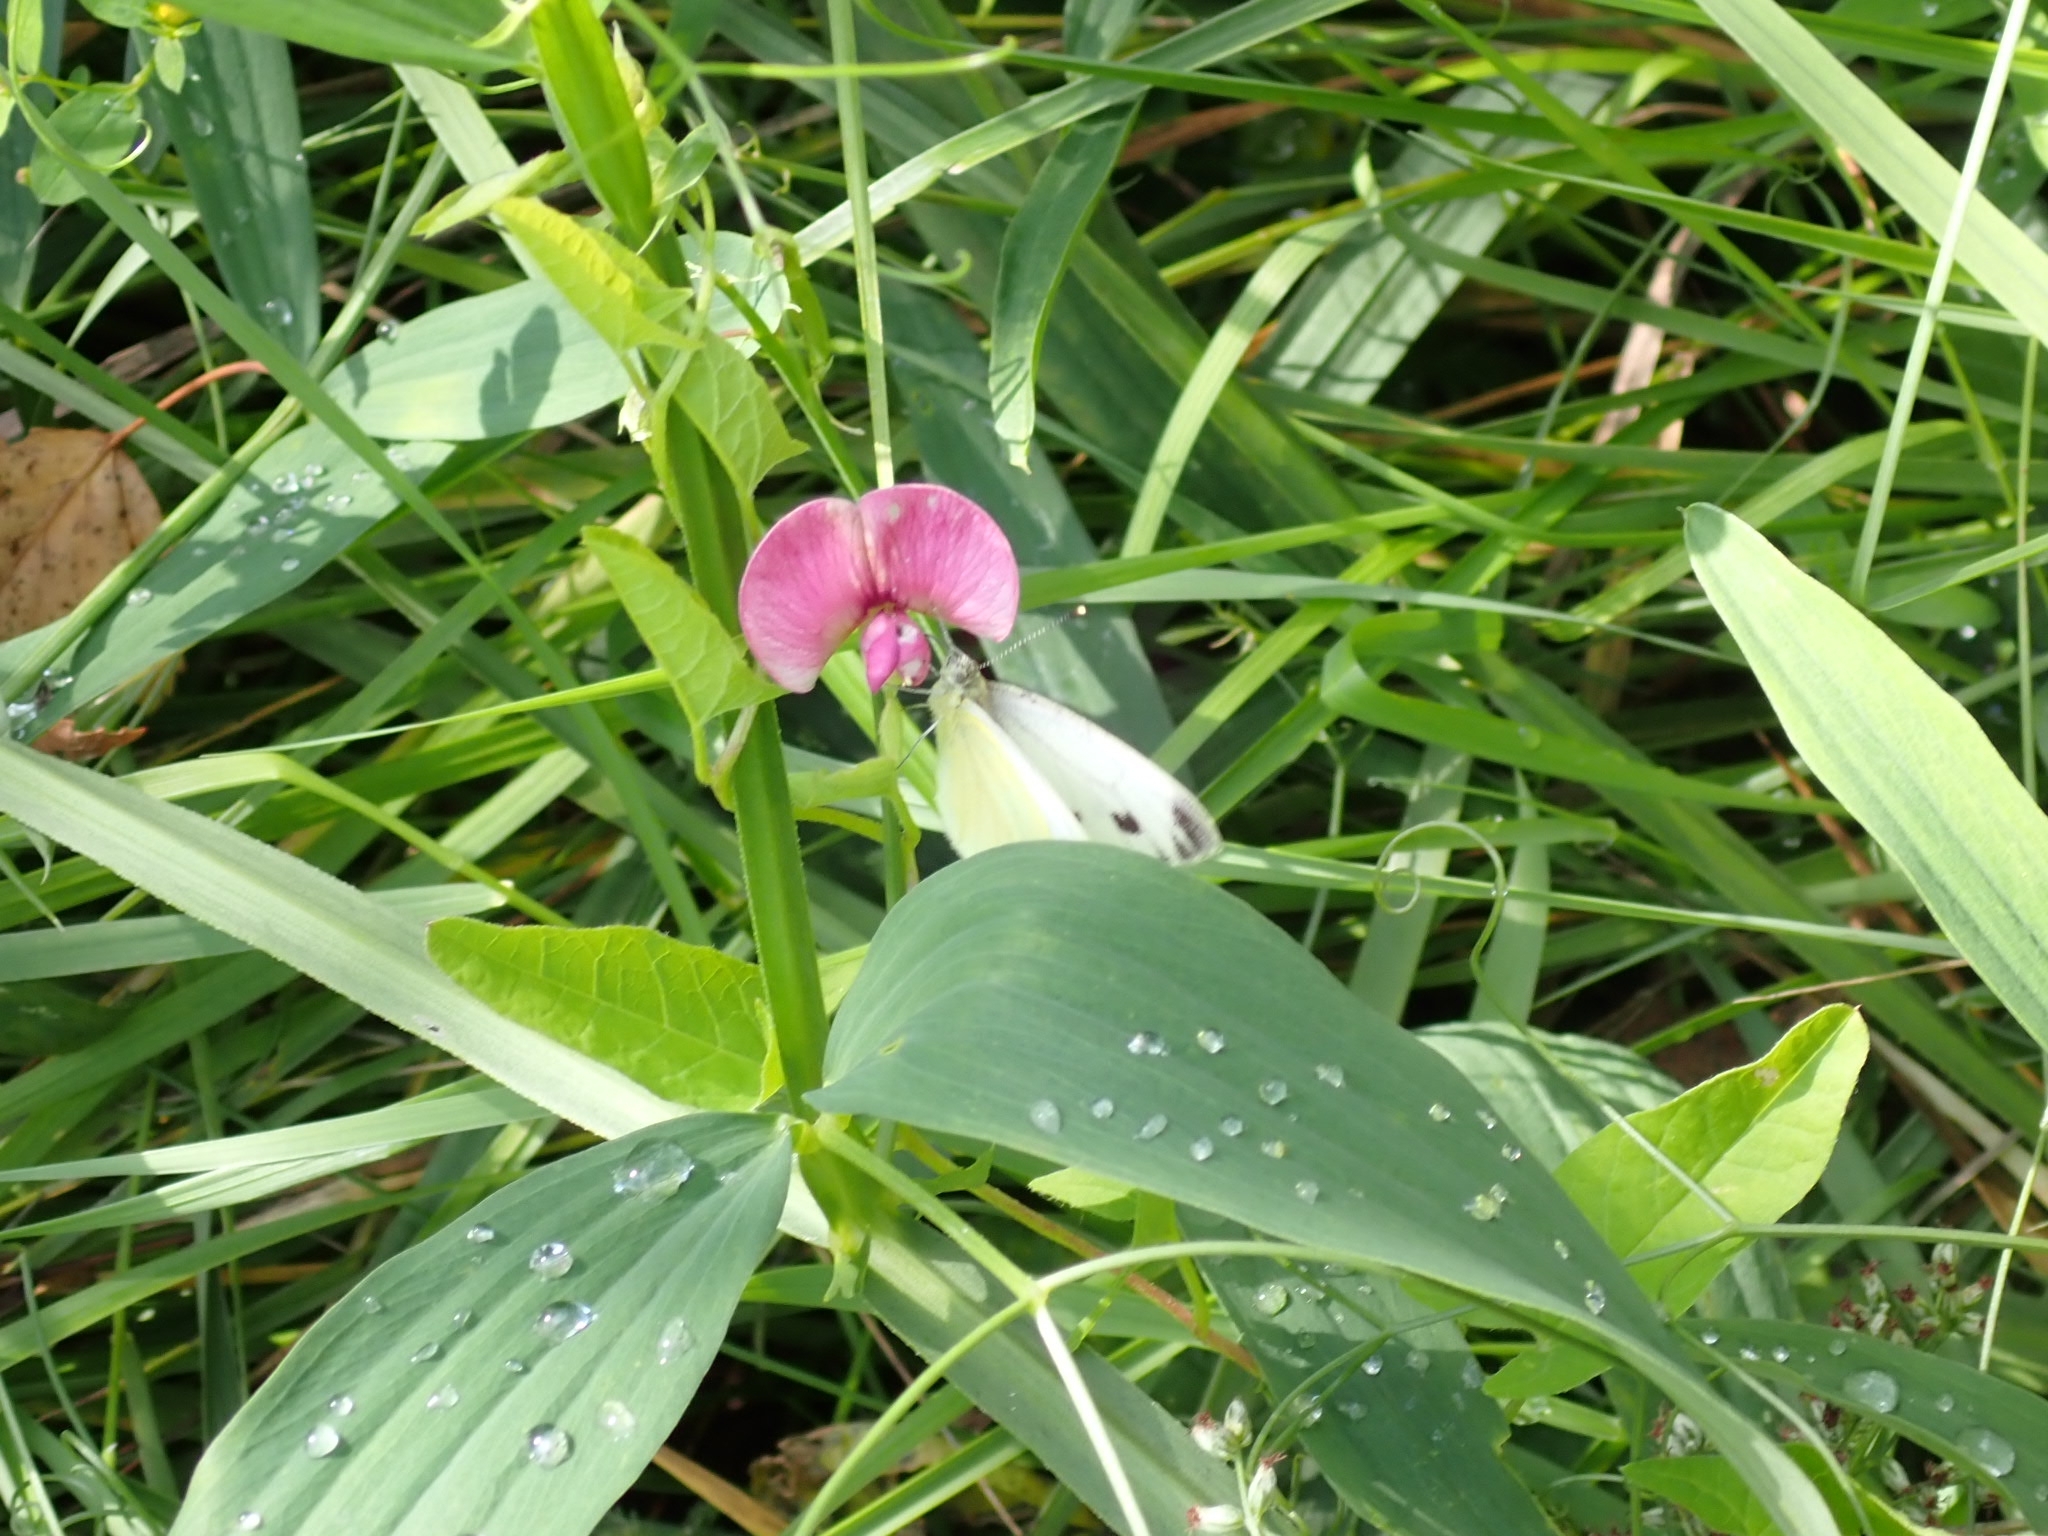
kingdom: Animalia
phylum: Arthropoda
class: Insecta
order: Lepidoptera
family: Pieridae
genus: Pieris
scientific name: Pieris napi
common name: Green-veined white
